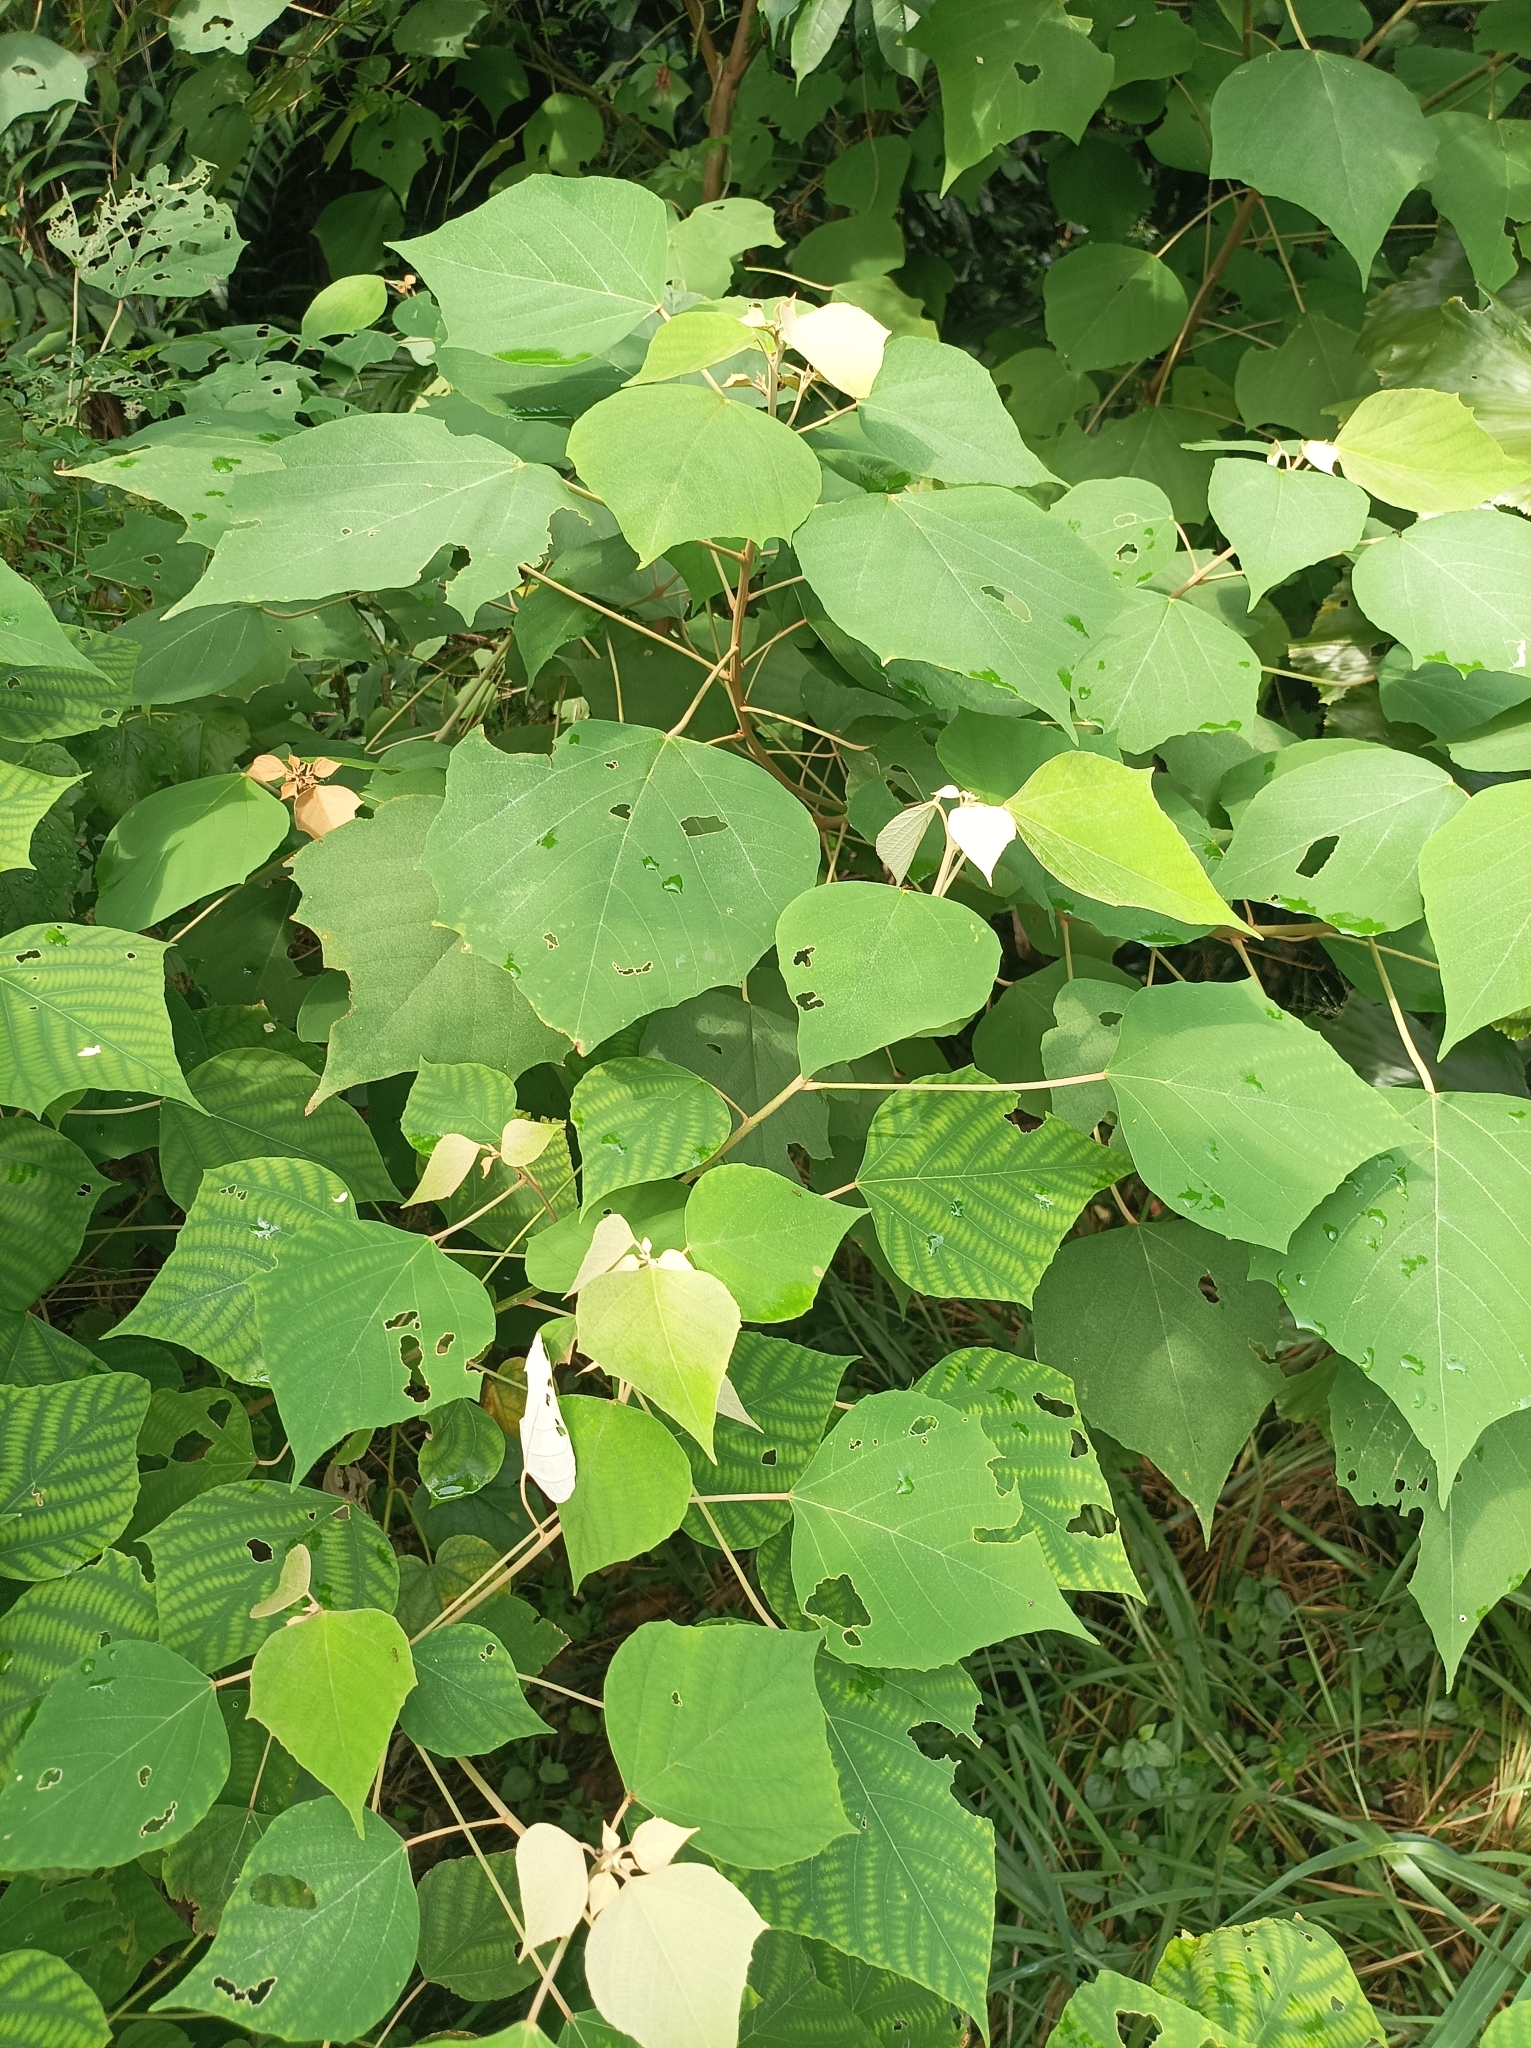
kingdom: Plantae
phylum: Tracheophyta
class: Magnoliopsida
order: Malpighiales
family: Euphorbiaceae
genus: Mallotus
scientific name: Mallotus paniculatus
